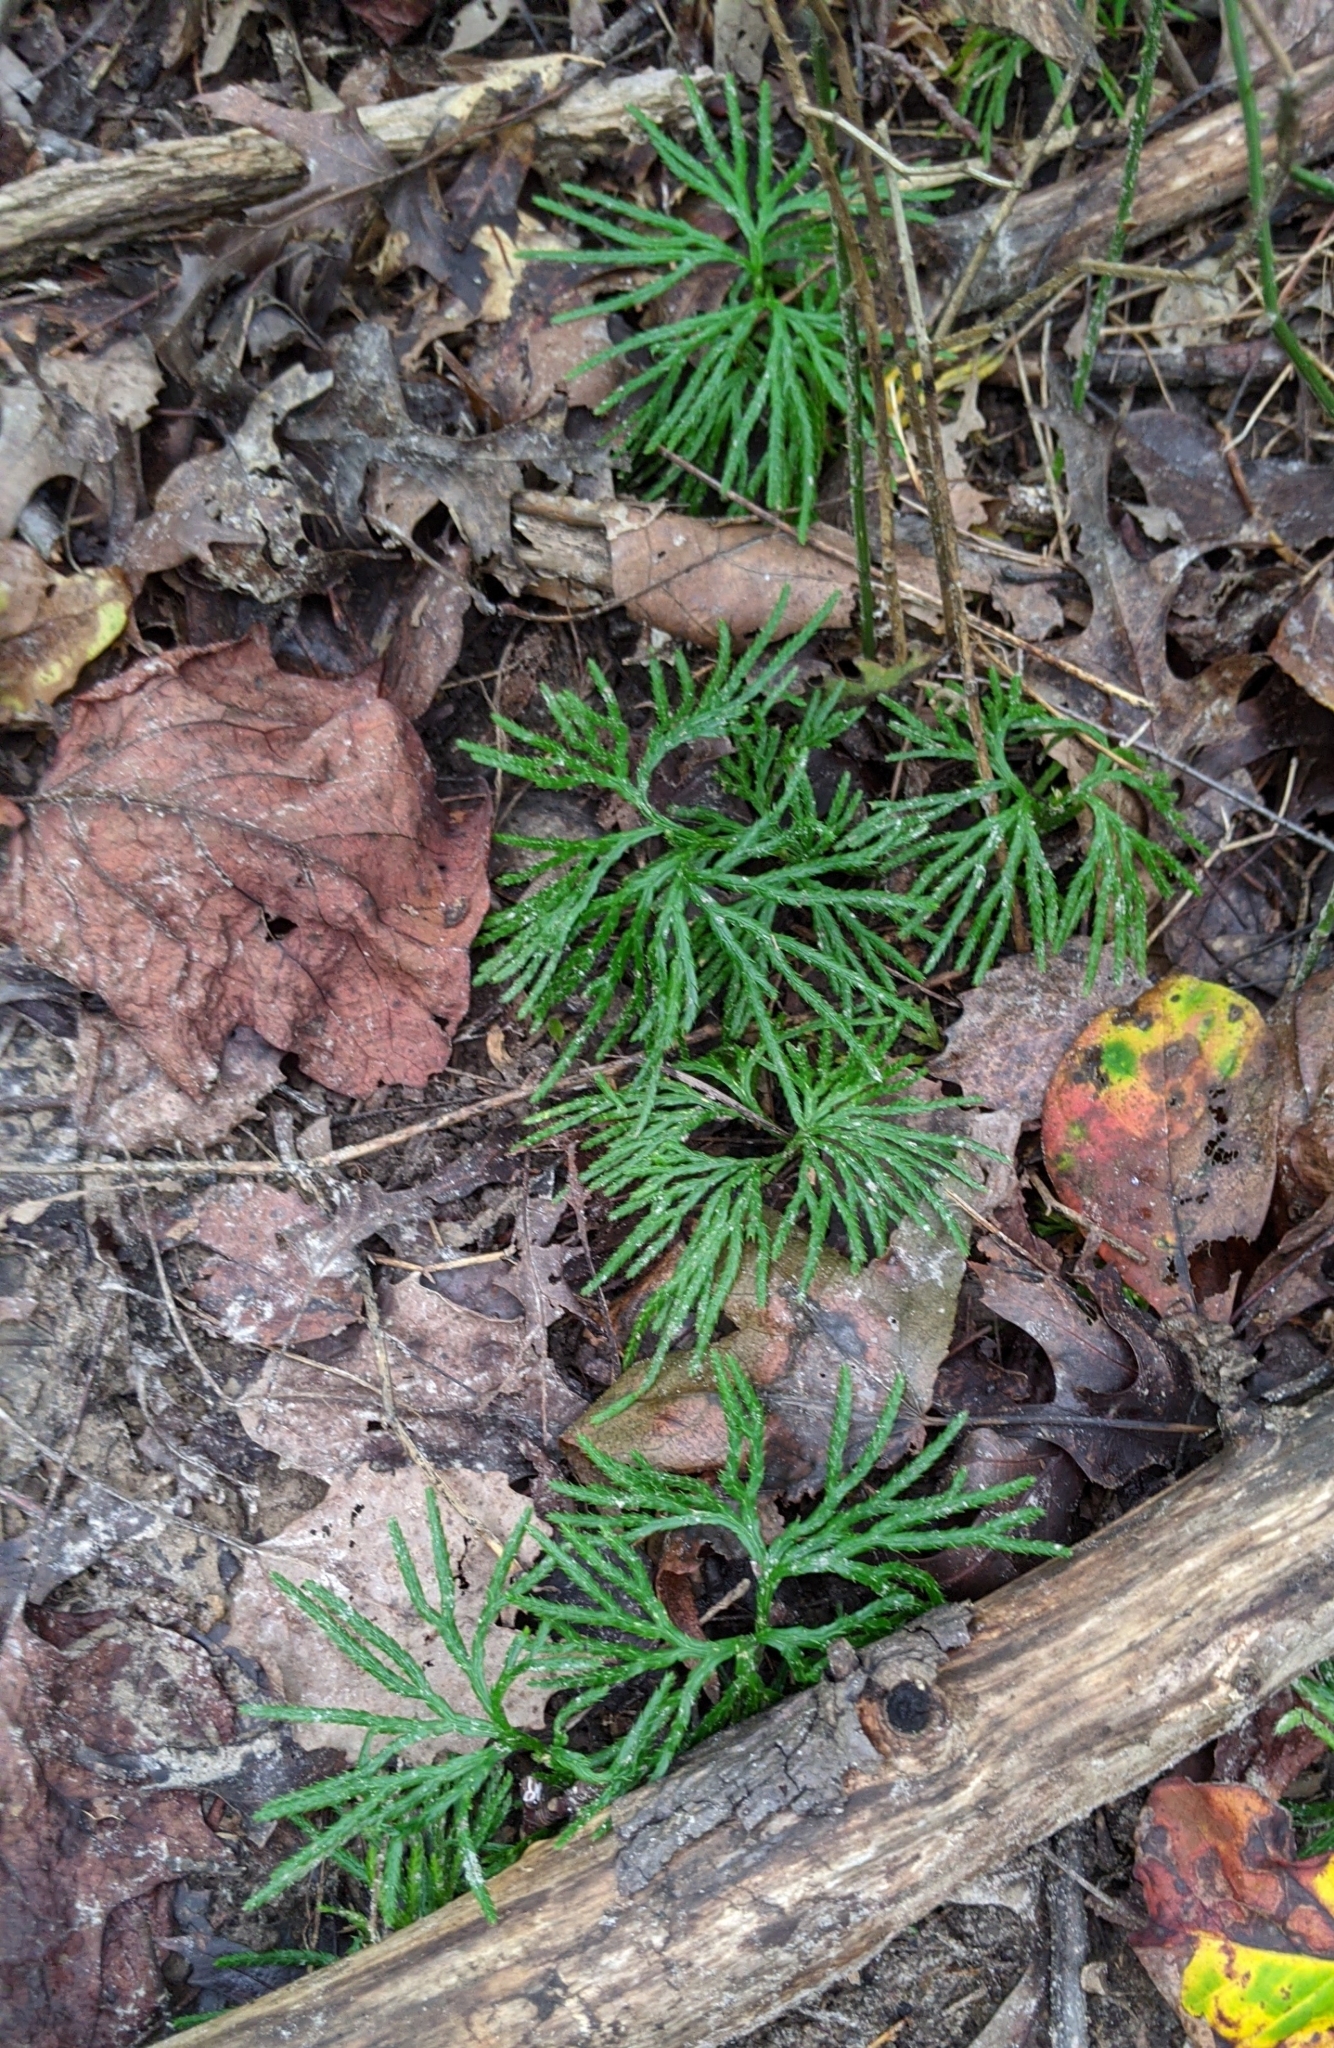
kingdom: Plantae
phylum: Tracheophyta
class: Lycopodiopsida
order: Lycopodiales
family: Lycopodiaceae
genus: Diphasiastrum
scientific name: Diphasiastrum digitatum
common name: Southern running-pine
